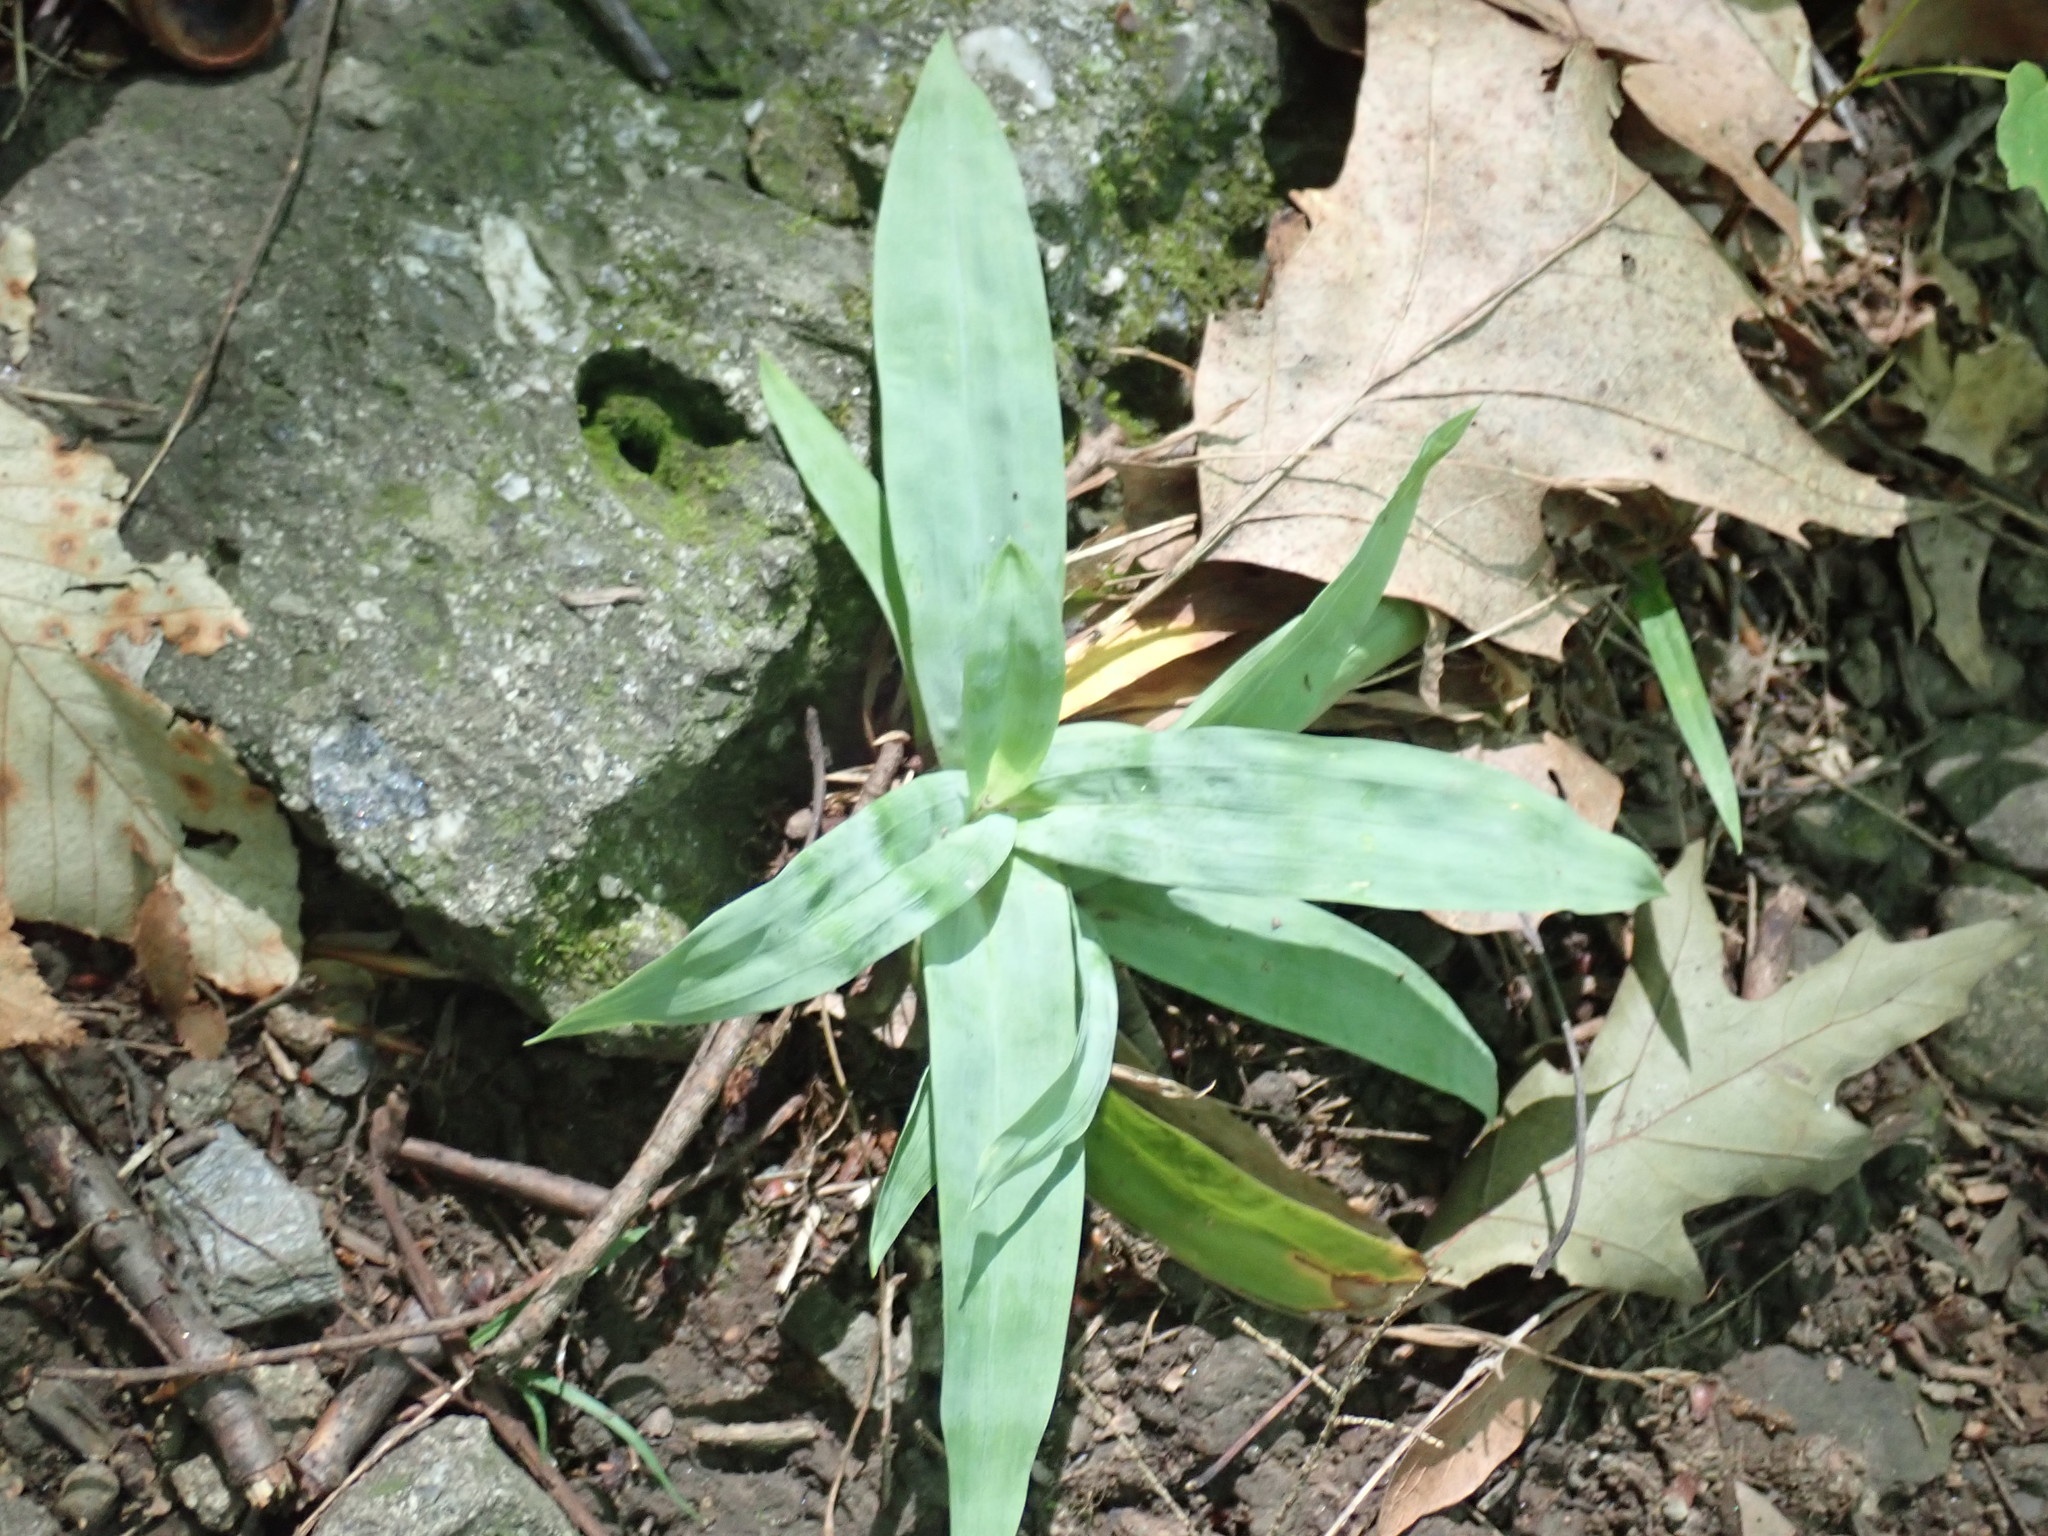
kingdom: Plantae
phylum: Tracheophyta
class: Liliopsida
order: Poales
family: Cyperaceae
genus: Carex
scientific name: Carex platyphylla
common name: Broad-leaved sedge
